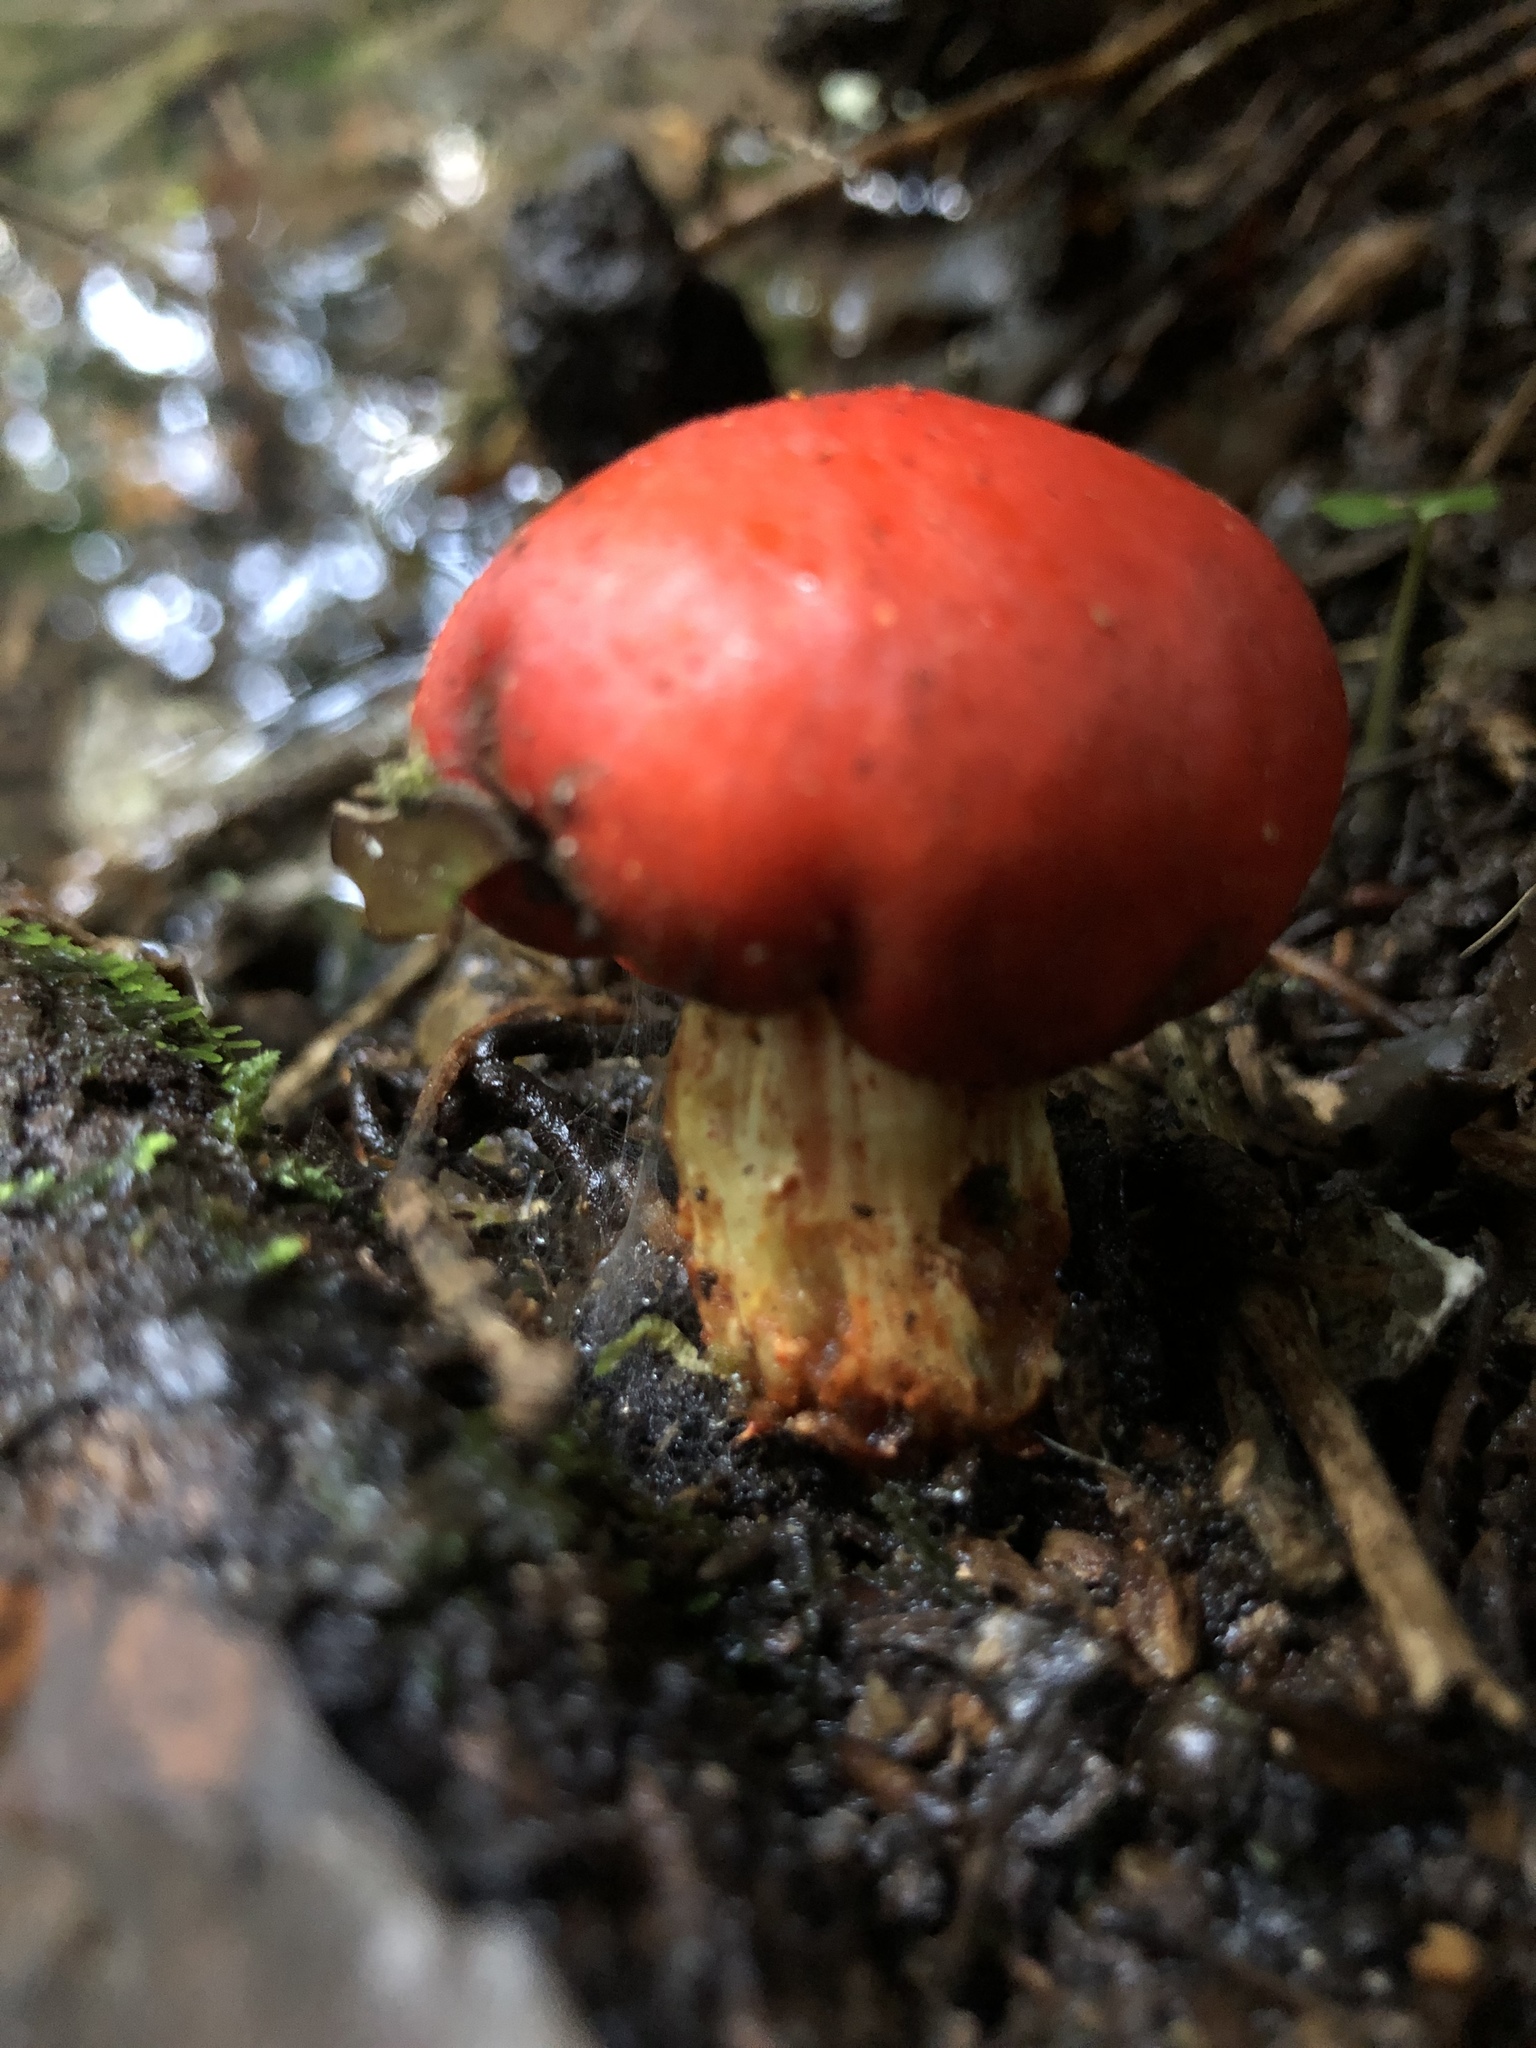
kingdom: Fungi
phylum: Basidiomycota
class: Agaricomycetes
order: Agaricales
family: Strophariaceae
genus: Leratiomyces
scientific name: Leratiomyces erythrocephalus
